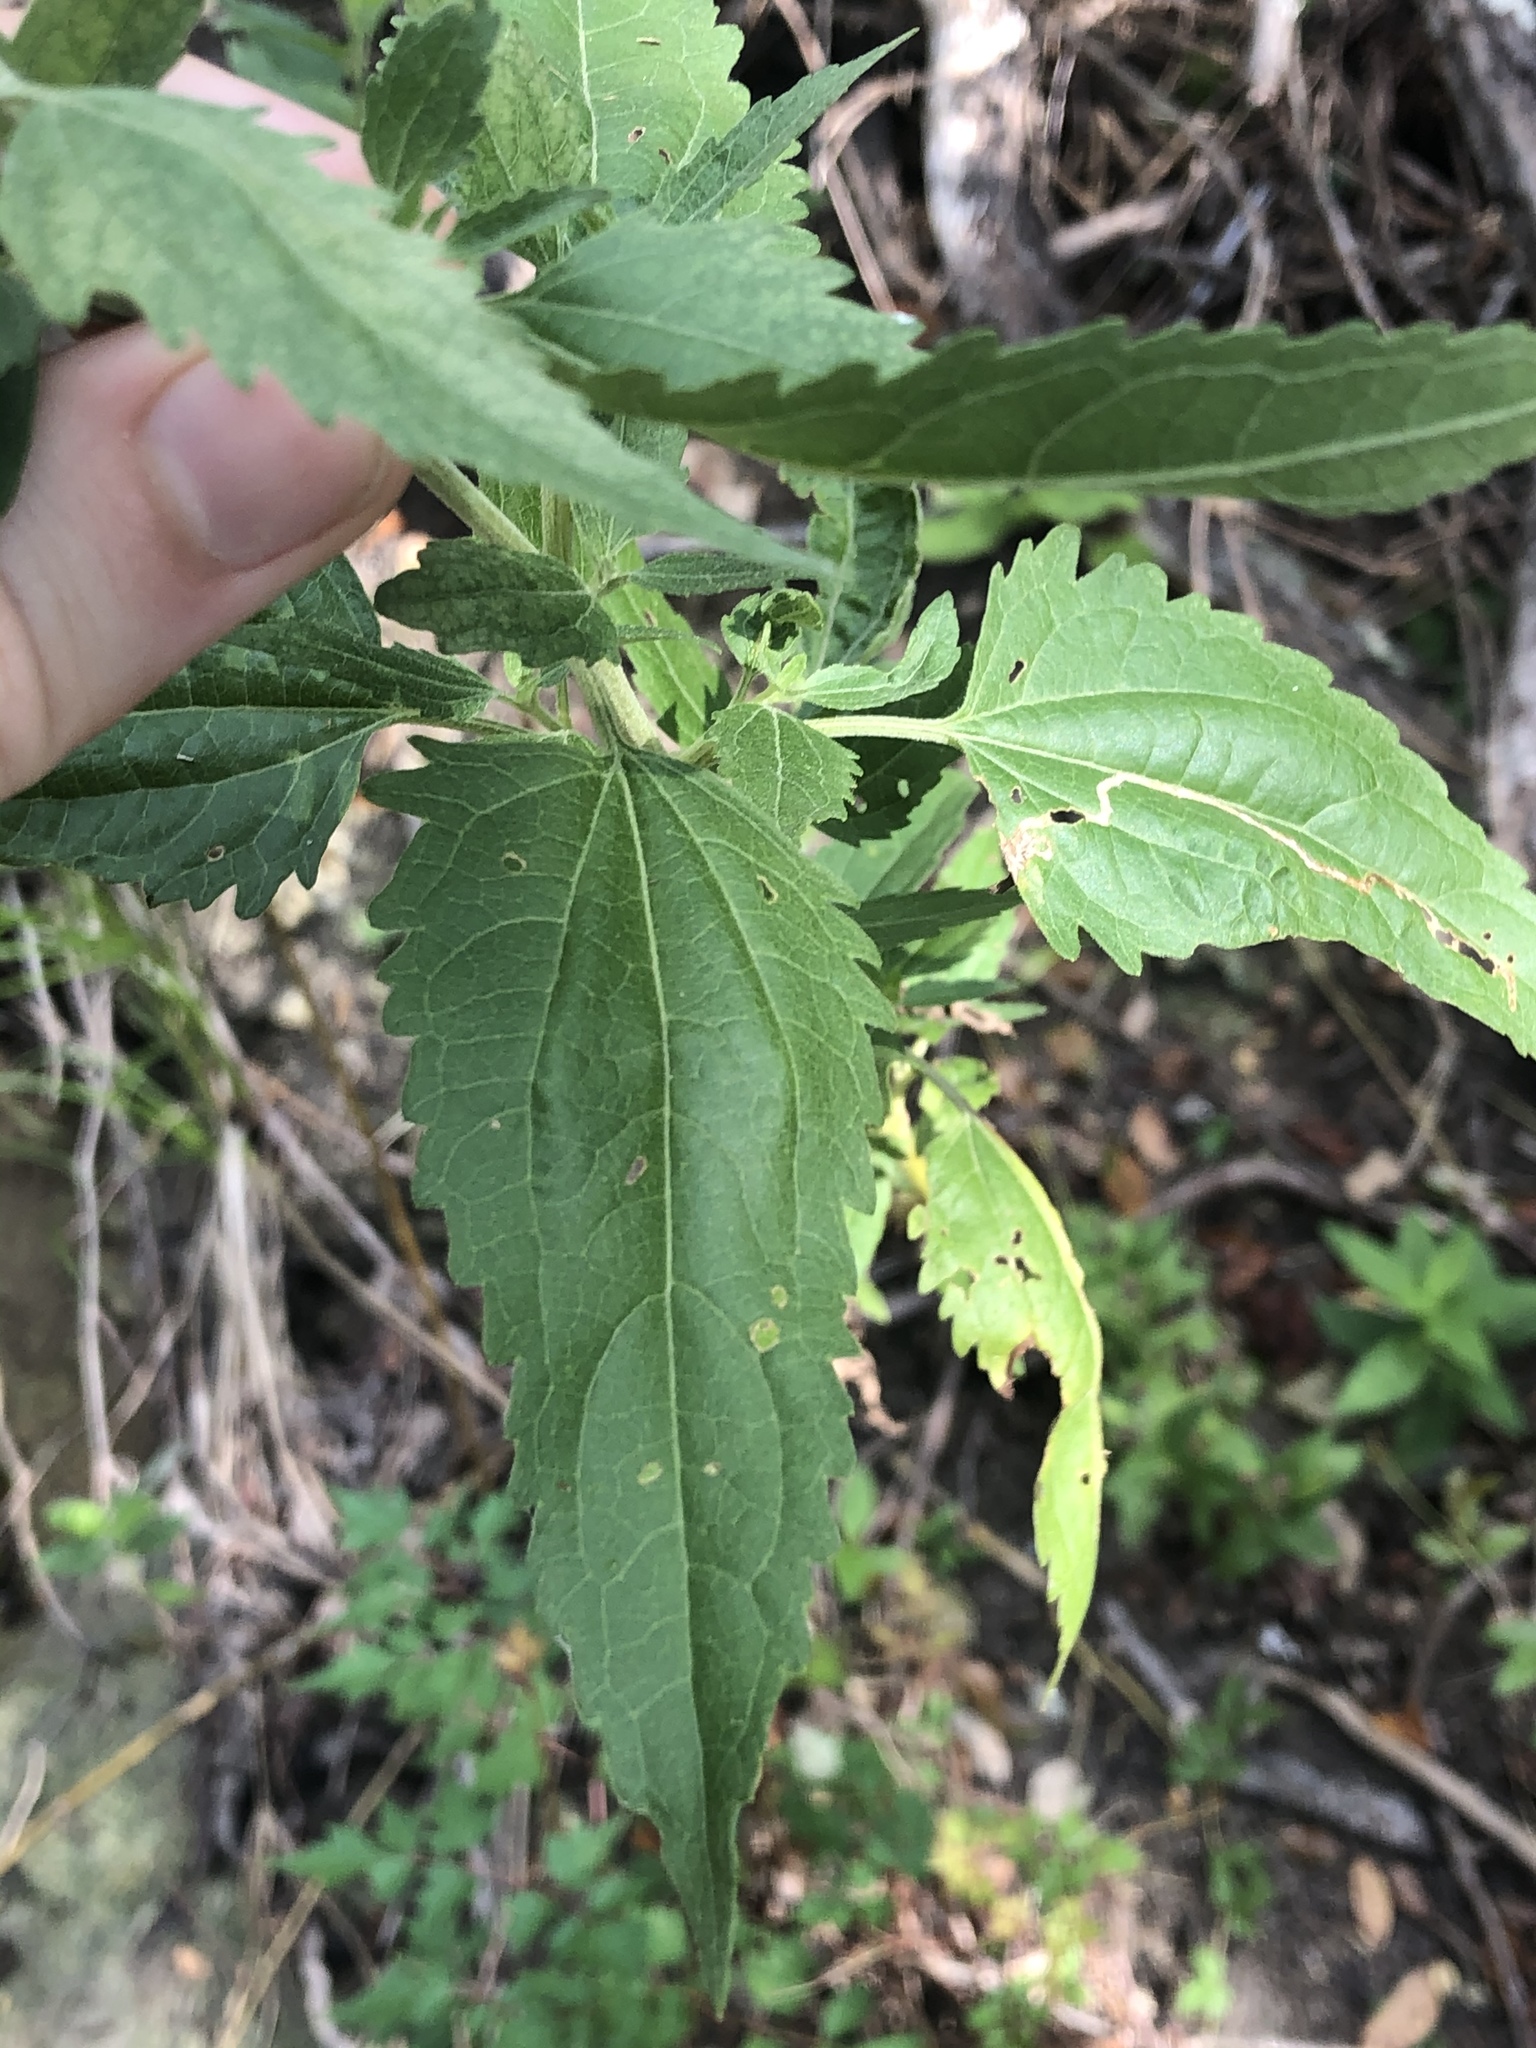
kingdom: Plantae
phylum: Tracheophyta
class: Magnoliopsida
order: Asterales
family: Asteraceae
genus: Eupatorium
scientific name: Eupatorium serotinum
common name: Late boneset
